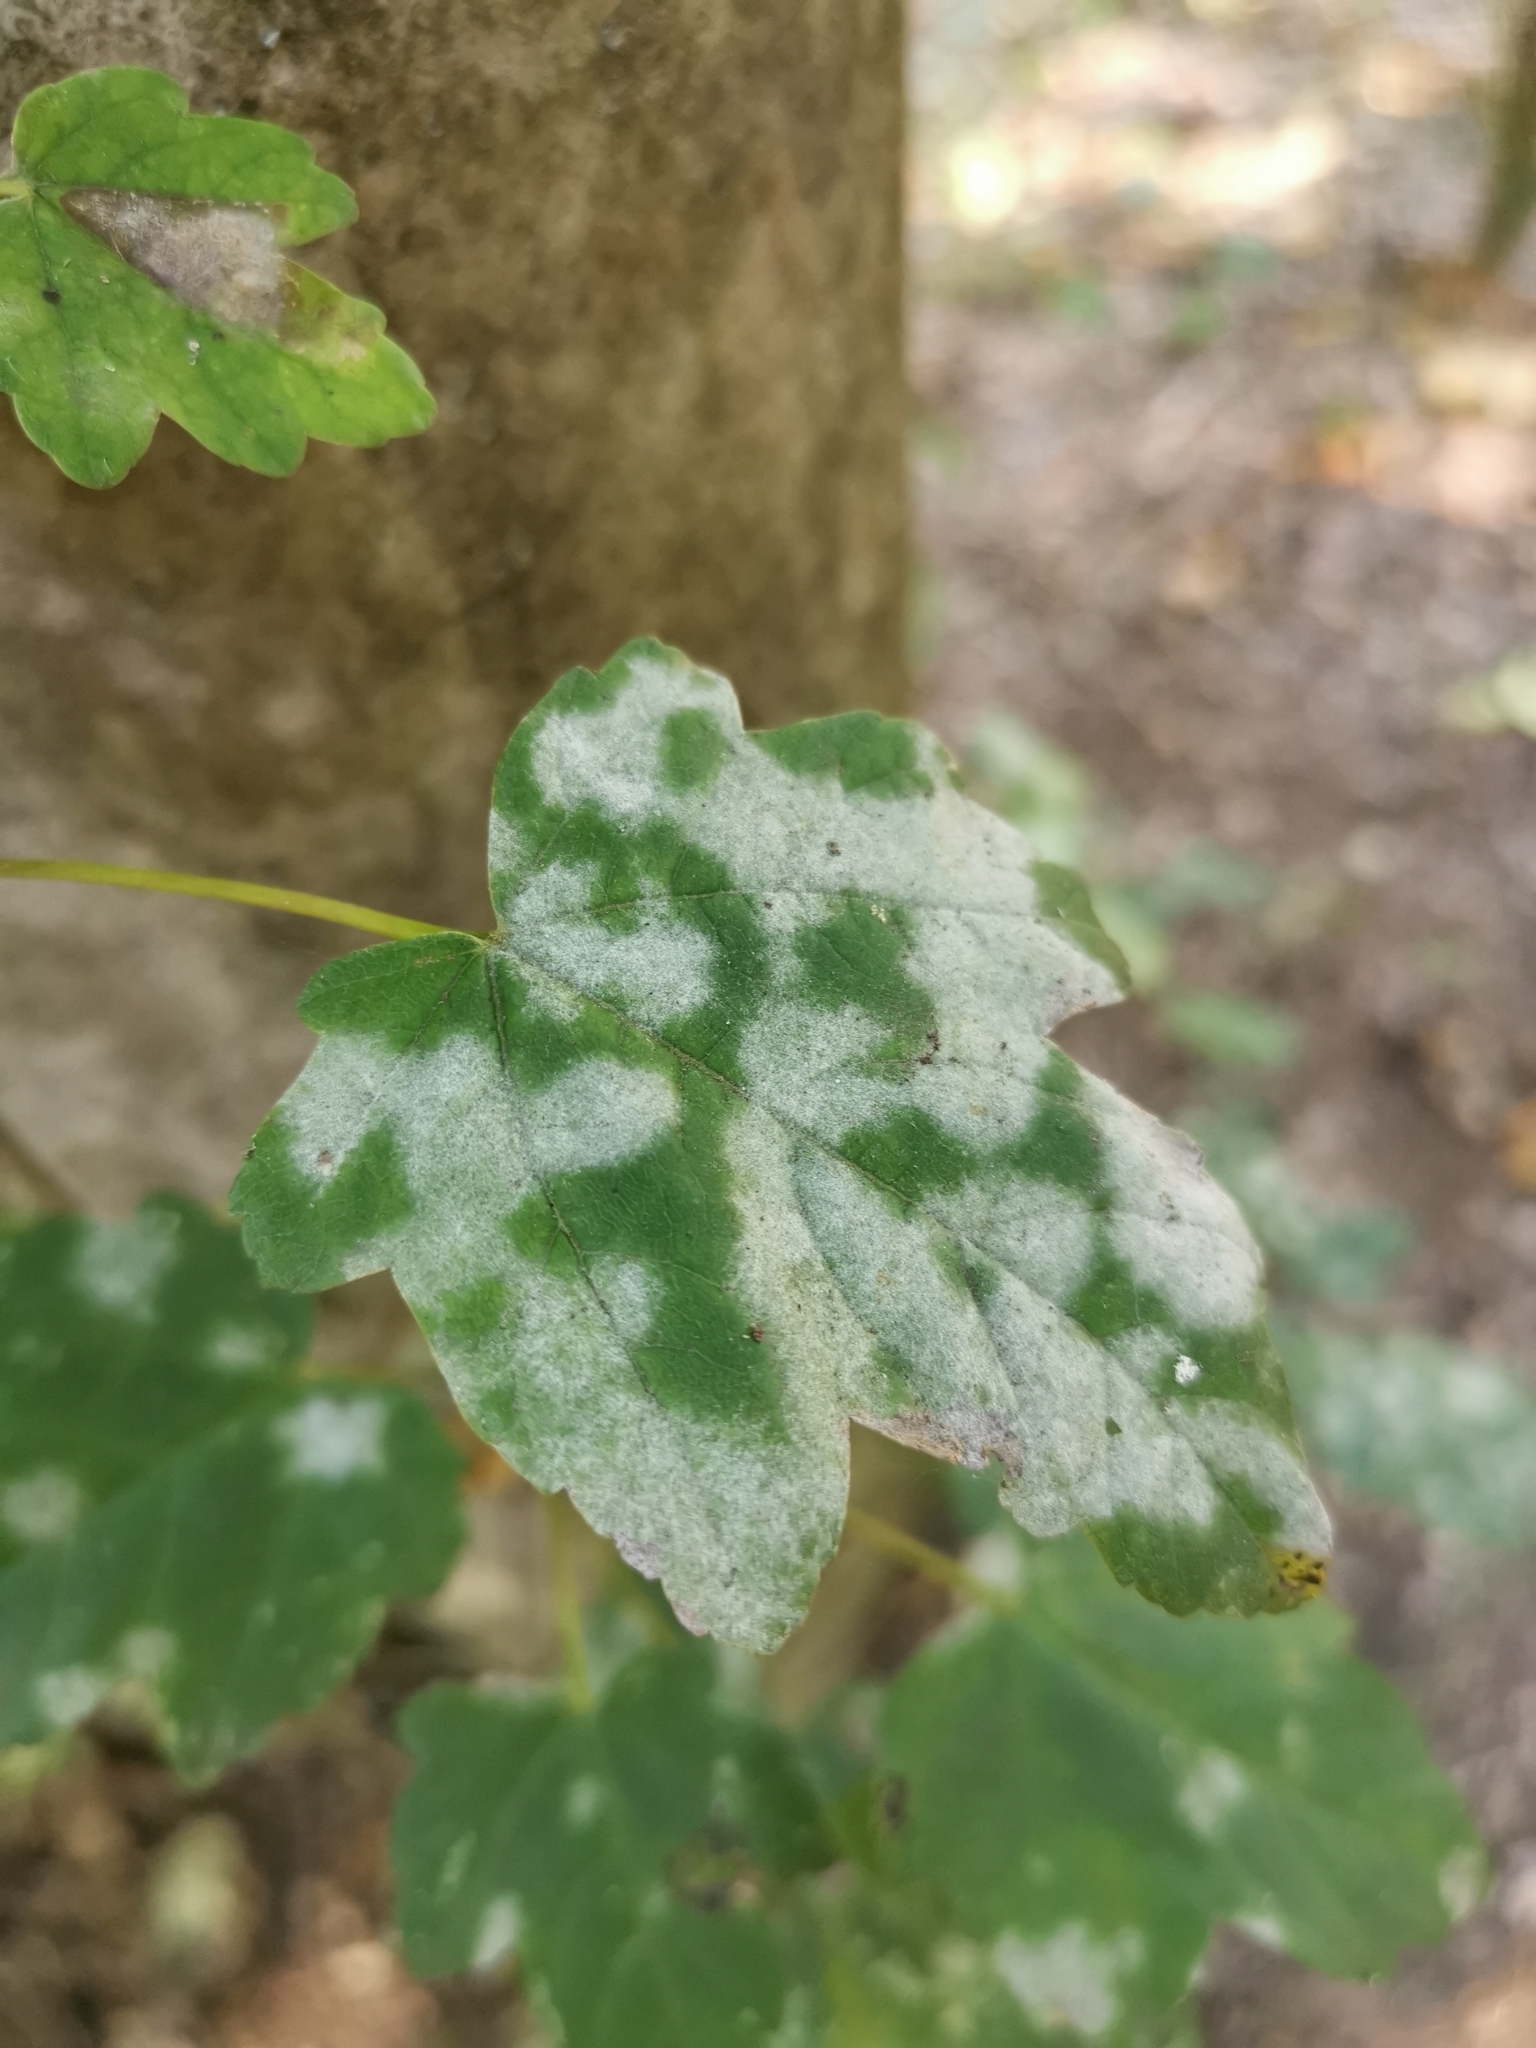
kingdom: Fungi
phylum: Ascomycota
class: Leotiomycetes
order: Helotiales
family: Erysiphaceae
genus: Sawadaea
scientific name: Sawadaea bicornis
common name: Maple mildew
